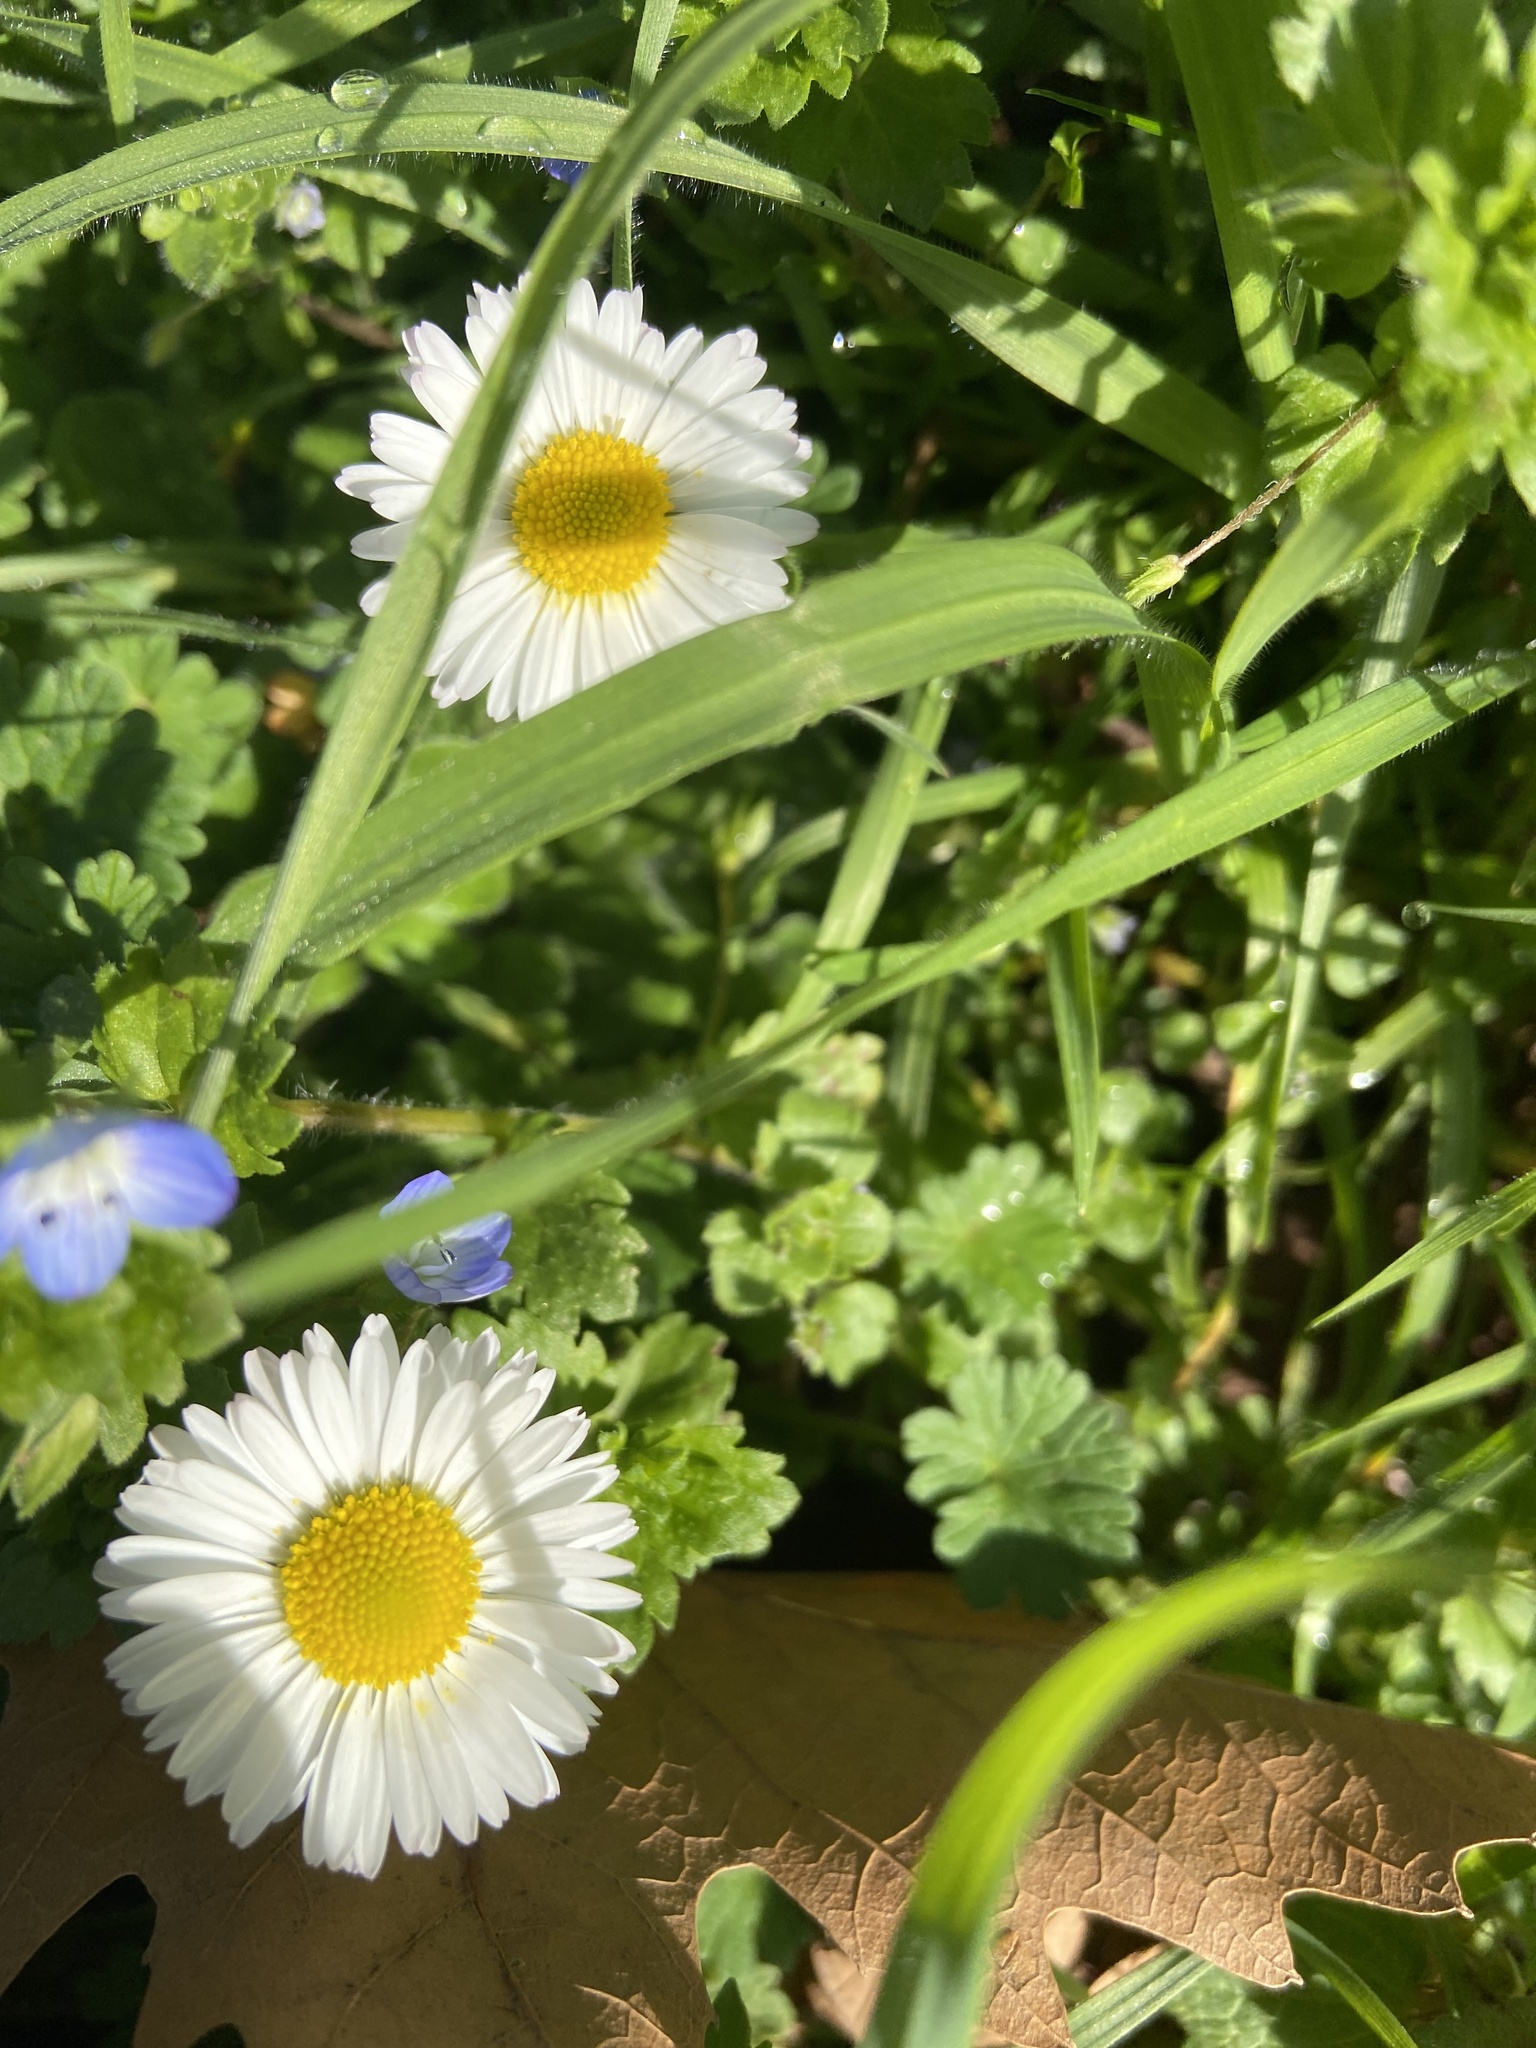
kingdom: Plantae
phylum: Tracheophyta
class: Magnoliopsida
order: Asterales
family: Asteraceae
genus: Bellis
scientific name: Bellis perennis
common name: Lawndaisy
